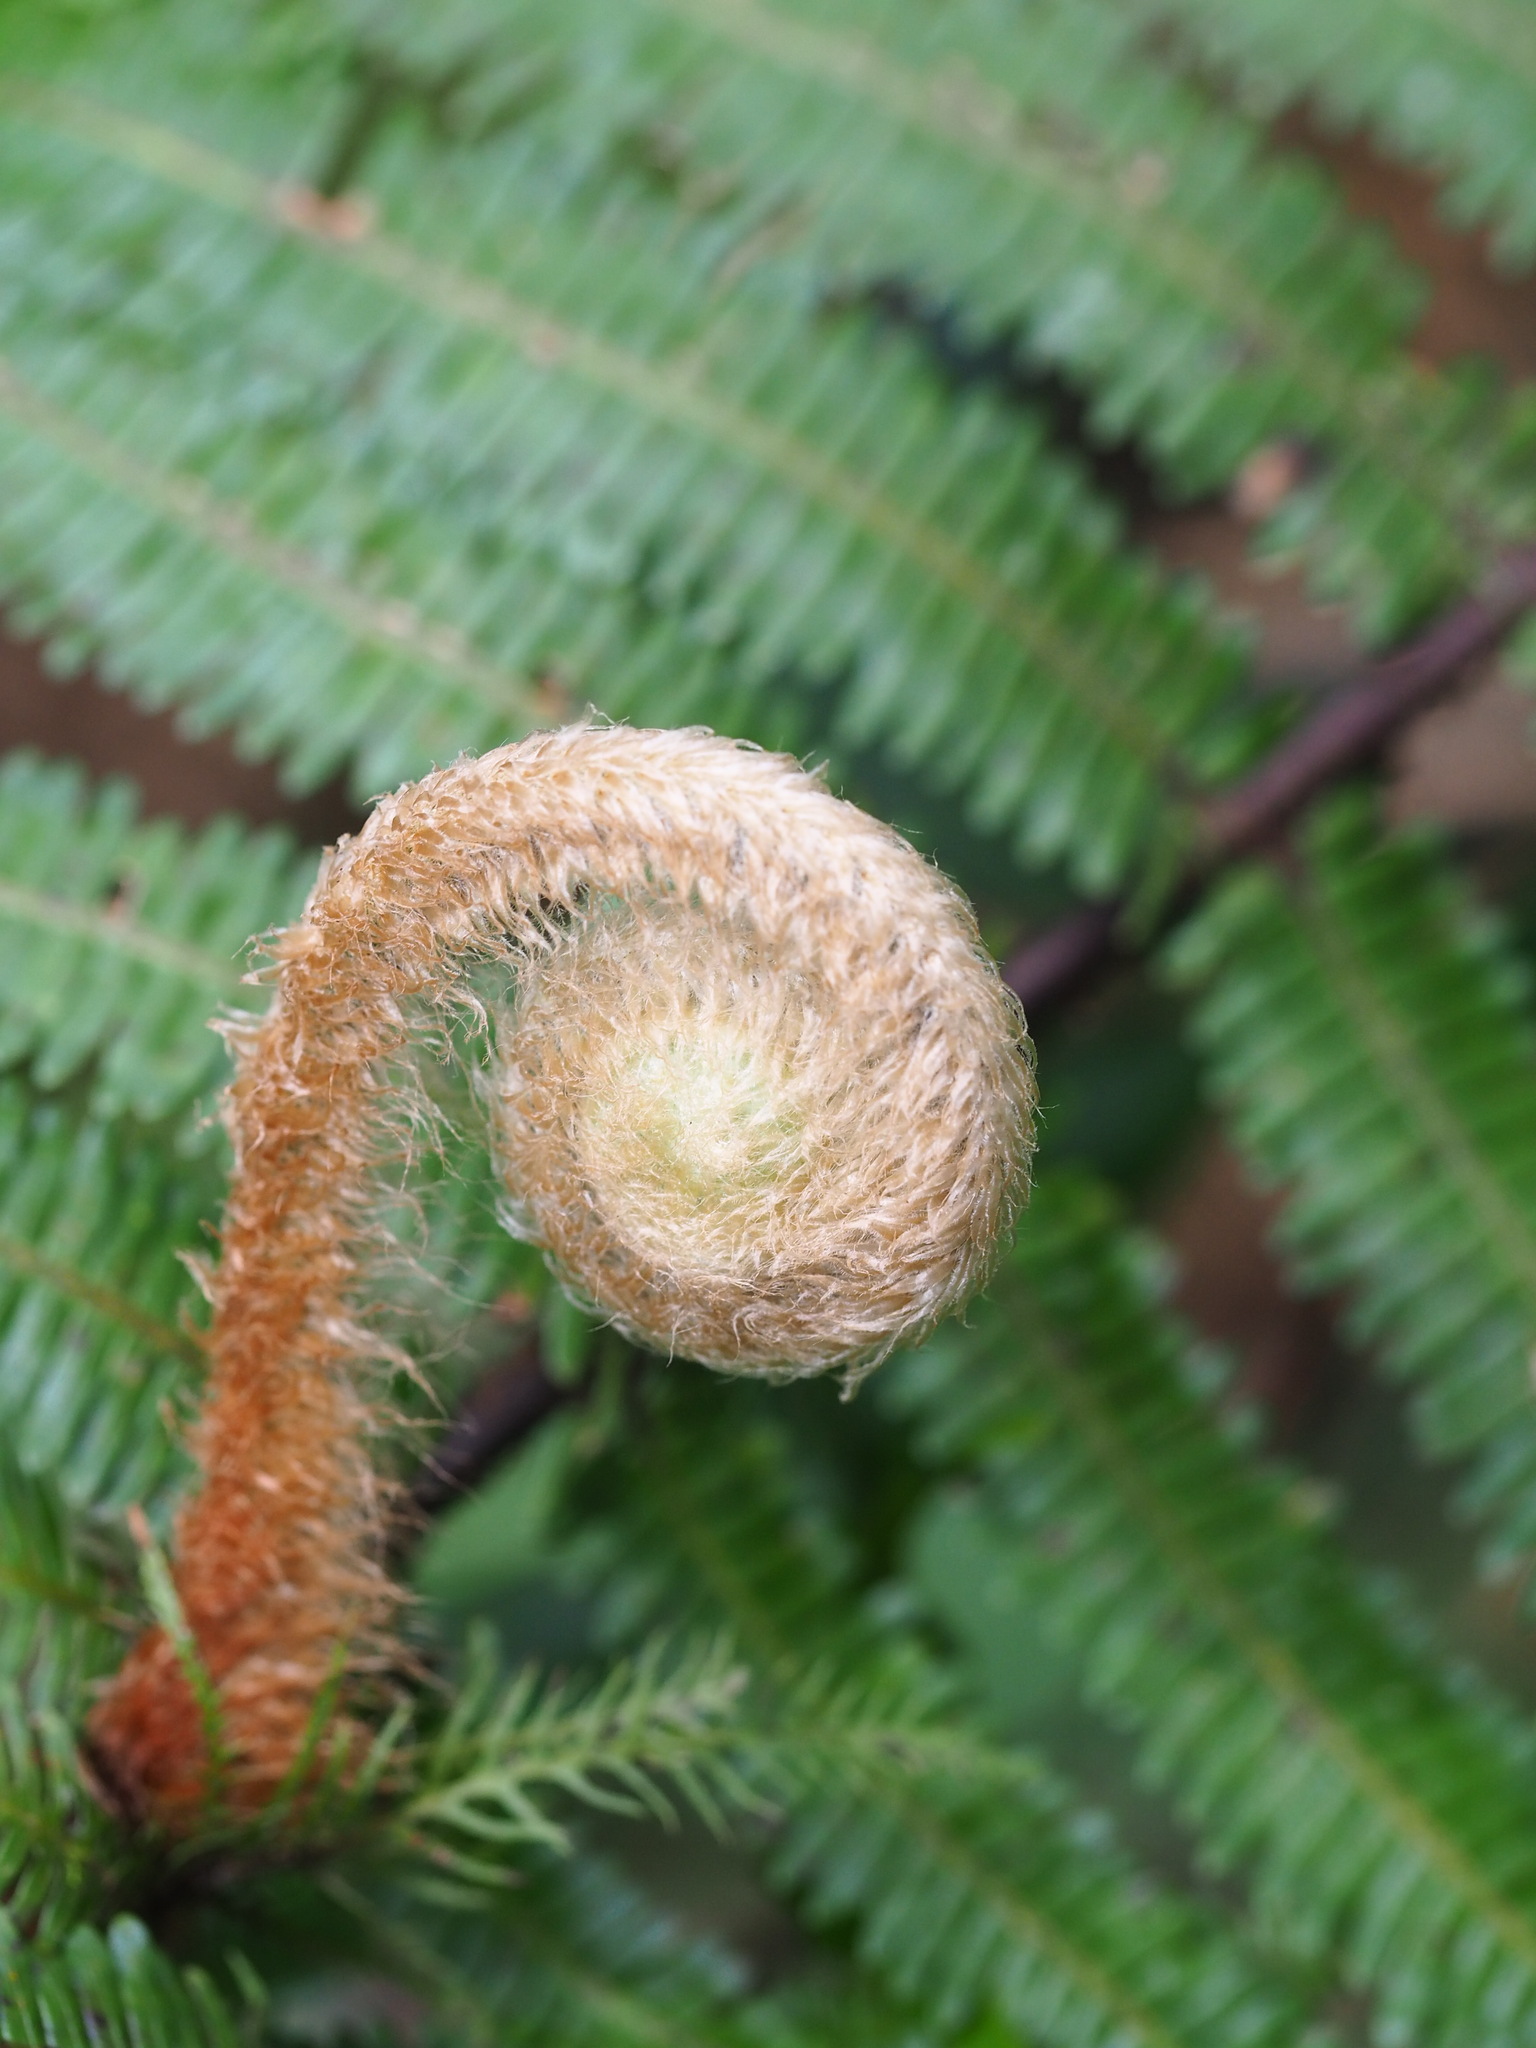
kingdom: Plantae
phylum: Tracheophyta
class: Polypodiopsida
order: Gleicheniales
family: Gleicheniaceae
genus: Diplopterygium
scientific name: Diplopterygium chinense
